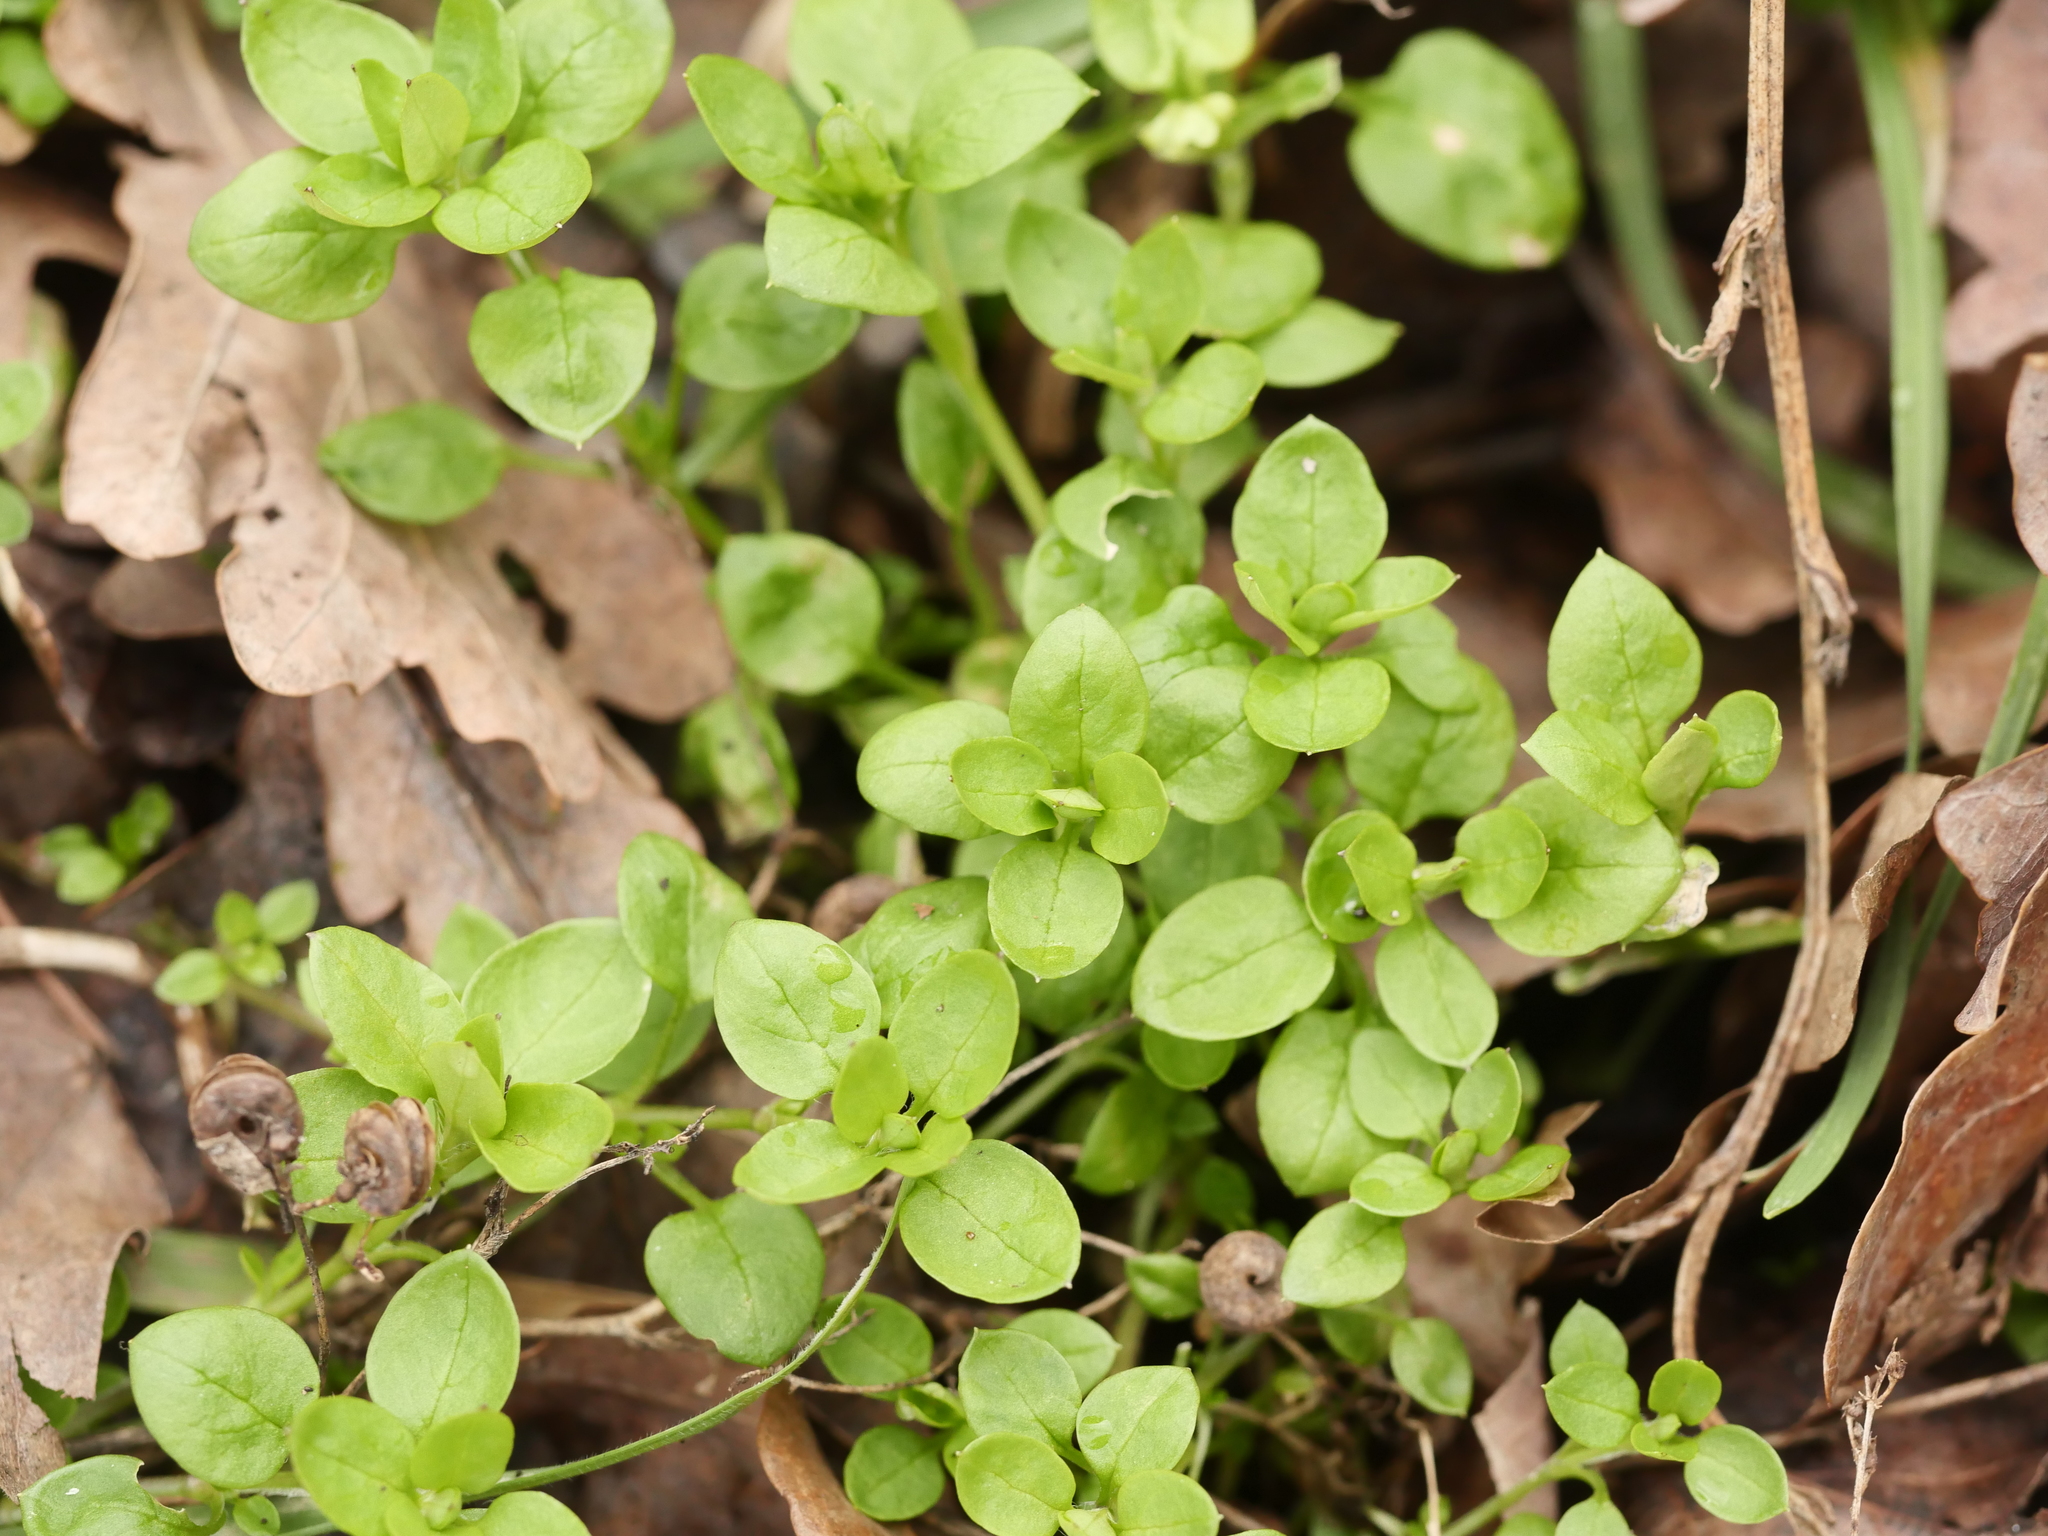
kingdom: Plantae
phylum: Tracheophyta
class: Magnoliopsida
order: Caryophyllales
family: Caryophyllaceae
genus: Stellaria
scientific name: Stellaria media
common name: Common chickweed
